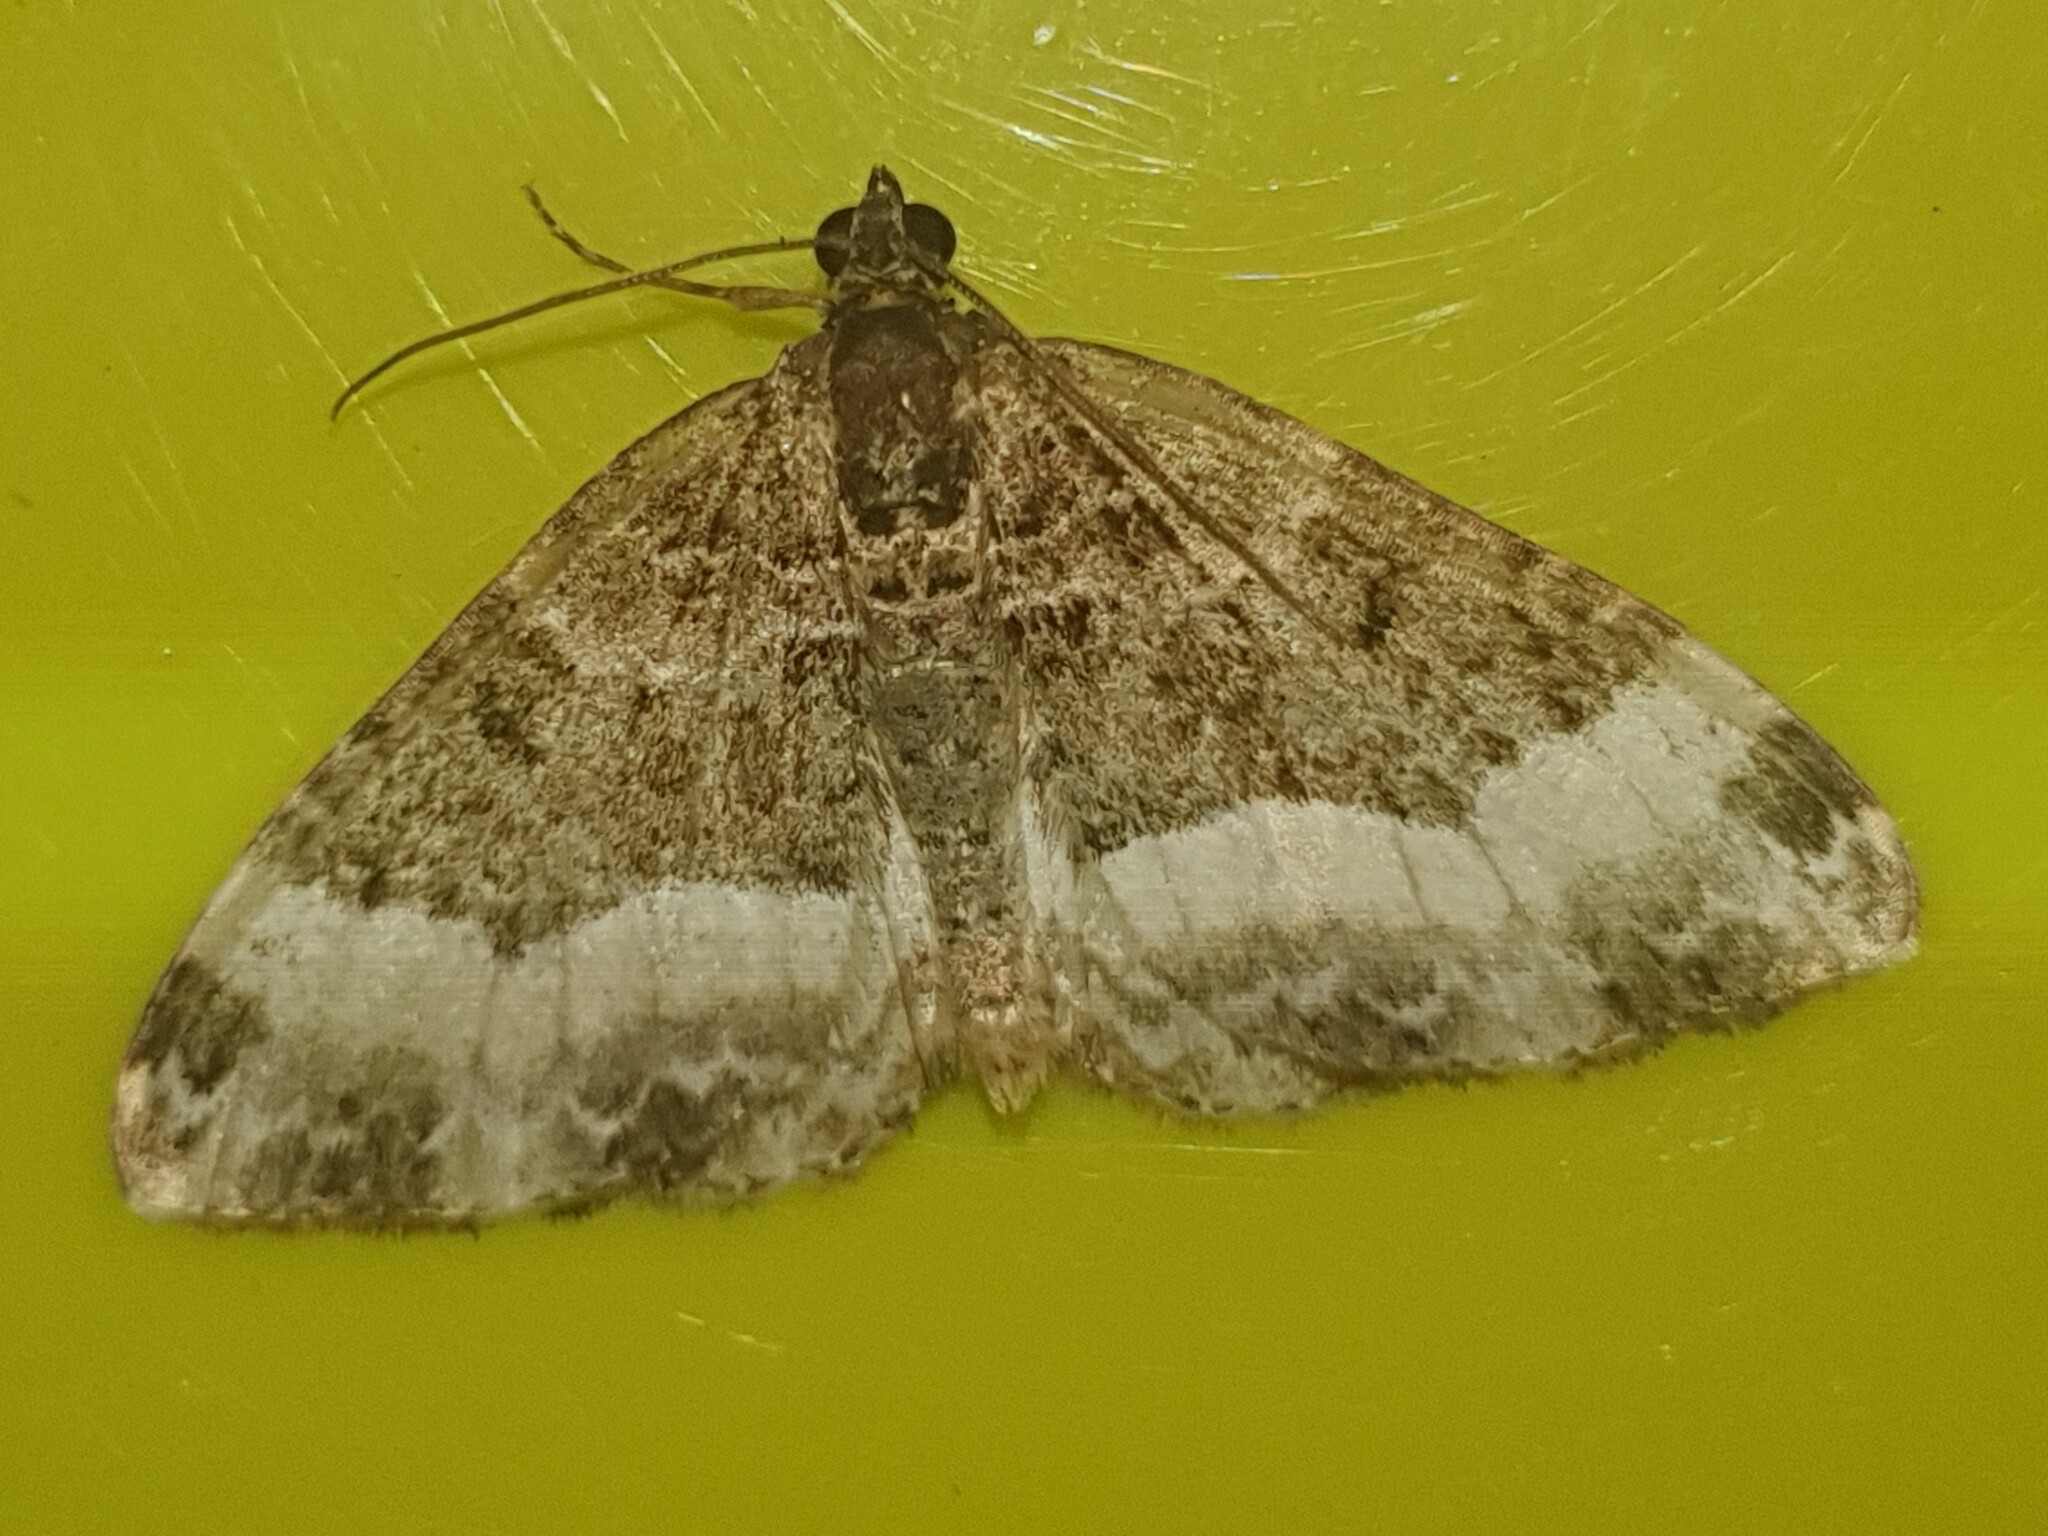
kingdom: Animalia
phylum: Arthropoda
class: Insecta
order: Lepidoptera
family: Geometridae
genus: Euphyia
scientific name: Euphyia unangulata
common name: Sharp-angled carpet
